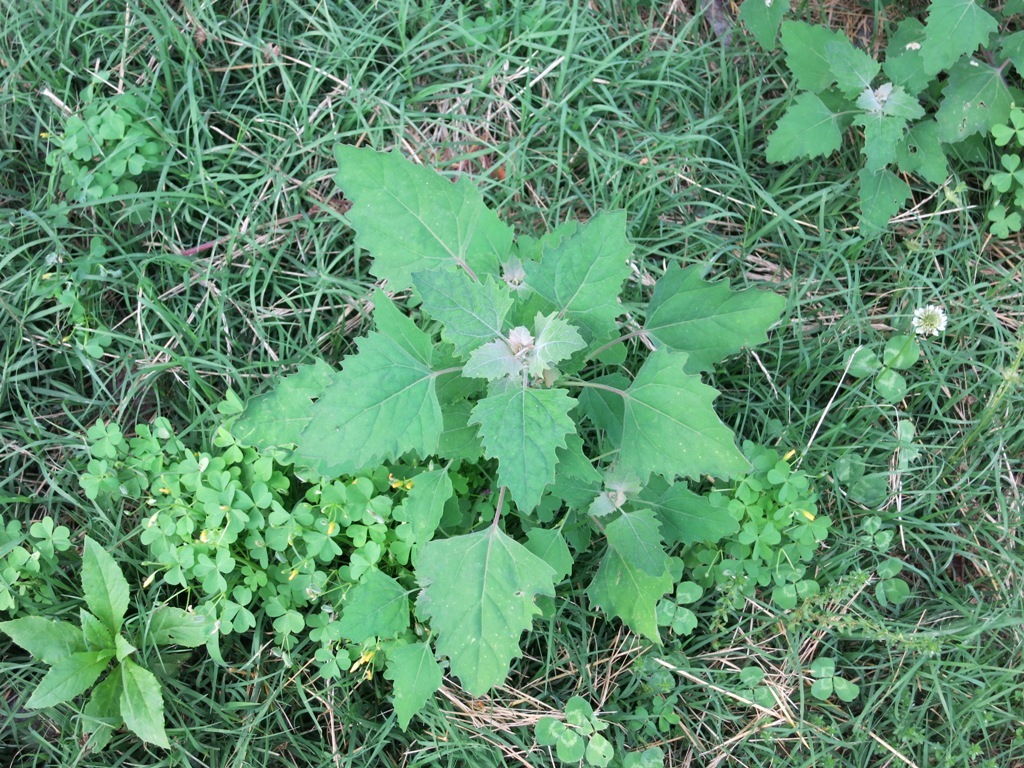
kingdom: Plantae
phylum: Tracheophyta
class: Magnoliopsida
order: Caryophyllales
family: Amaranthaceae
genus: Chenopodium
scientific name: Chenopodium album
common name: Fat-hen
